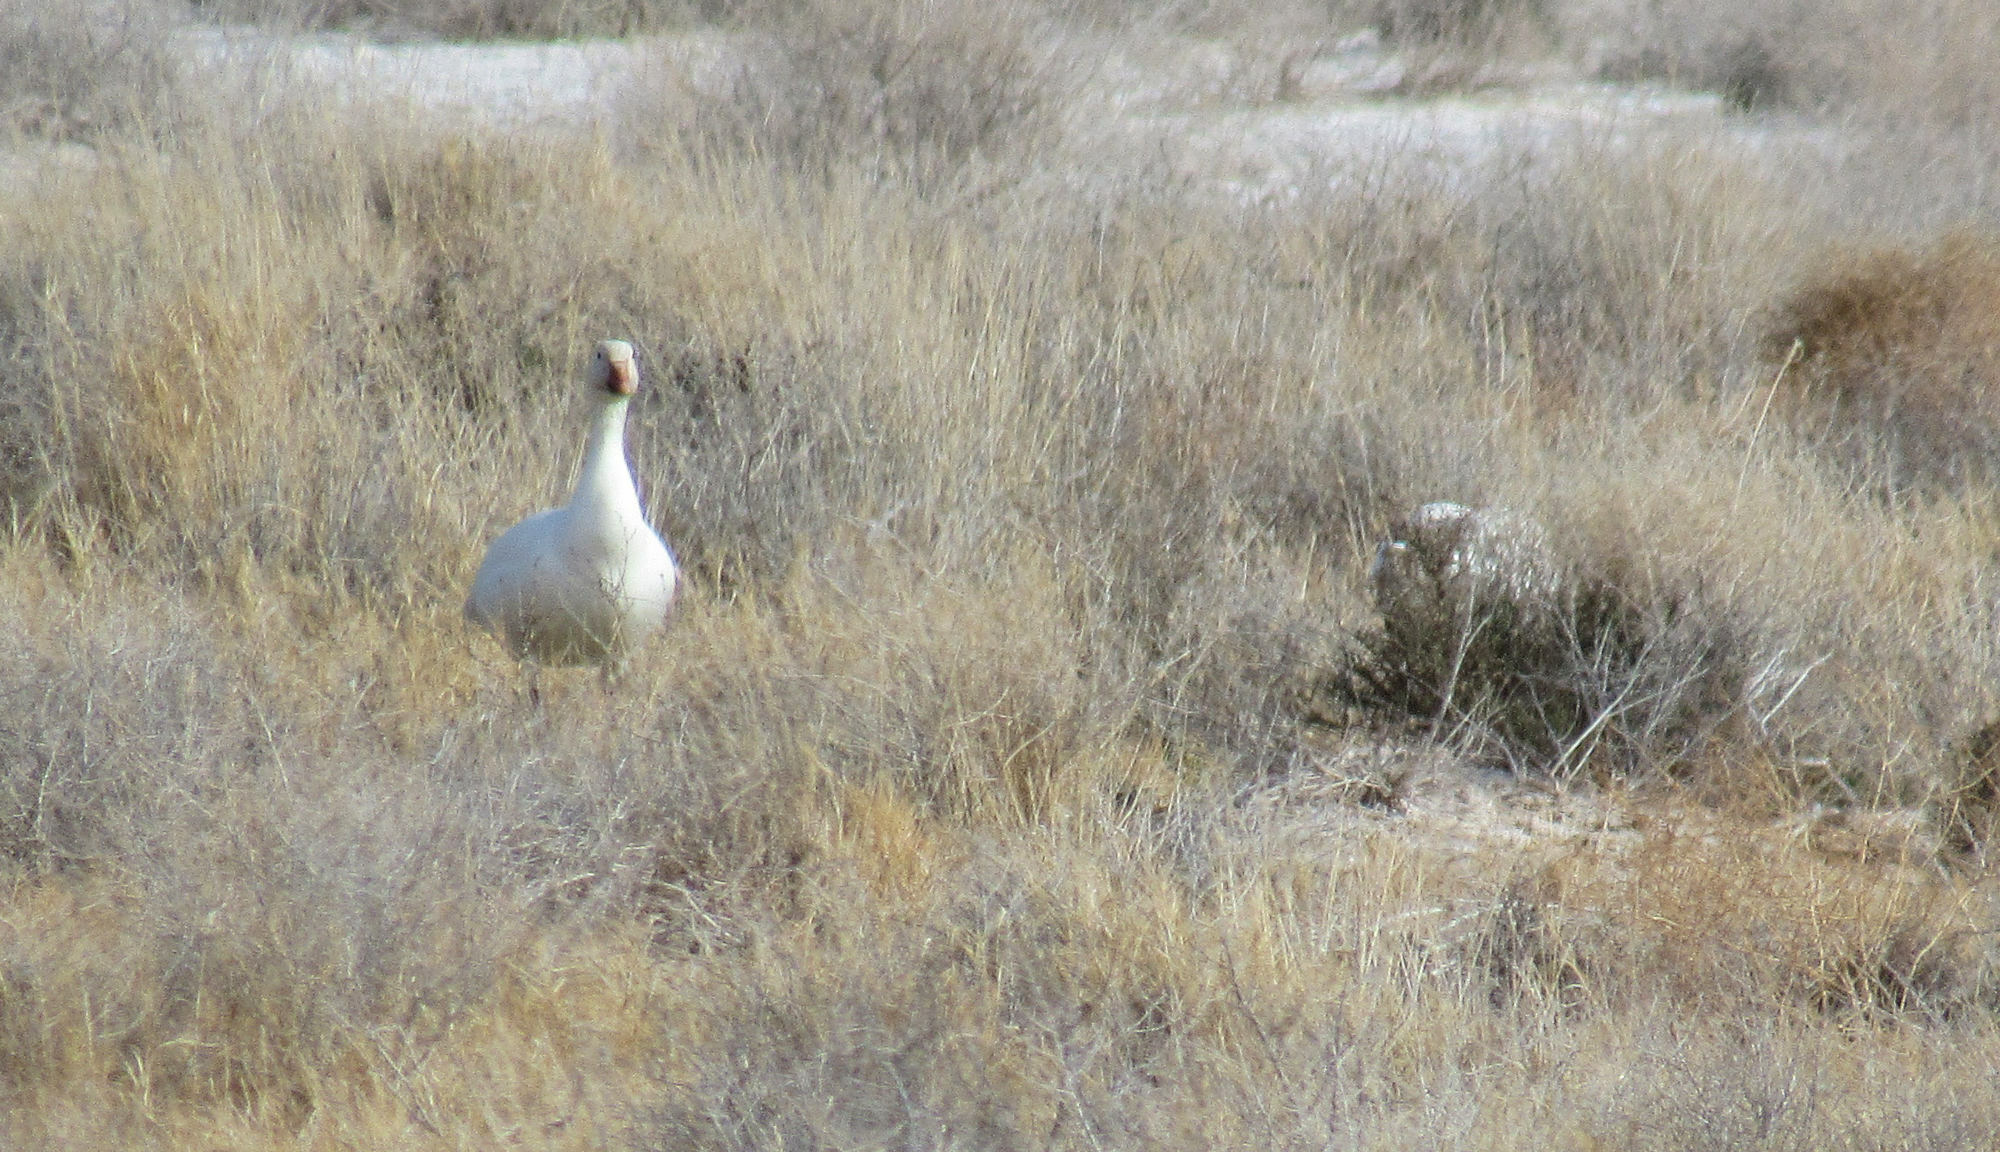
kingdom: Animalia
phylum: Chordata
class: Aves
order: Anseriformes
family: Anatidae
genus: Anser
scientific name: Anser caerulescens
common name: Snow goose
